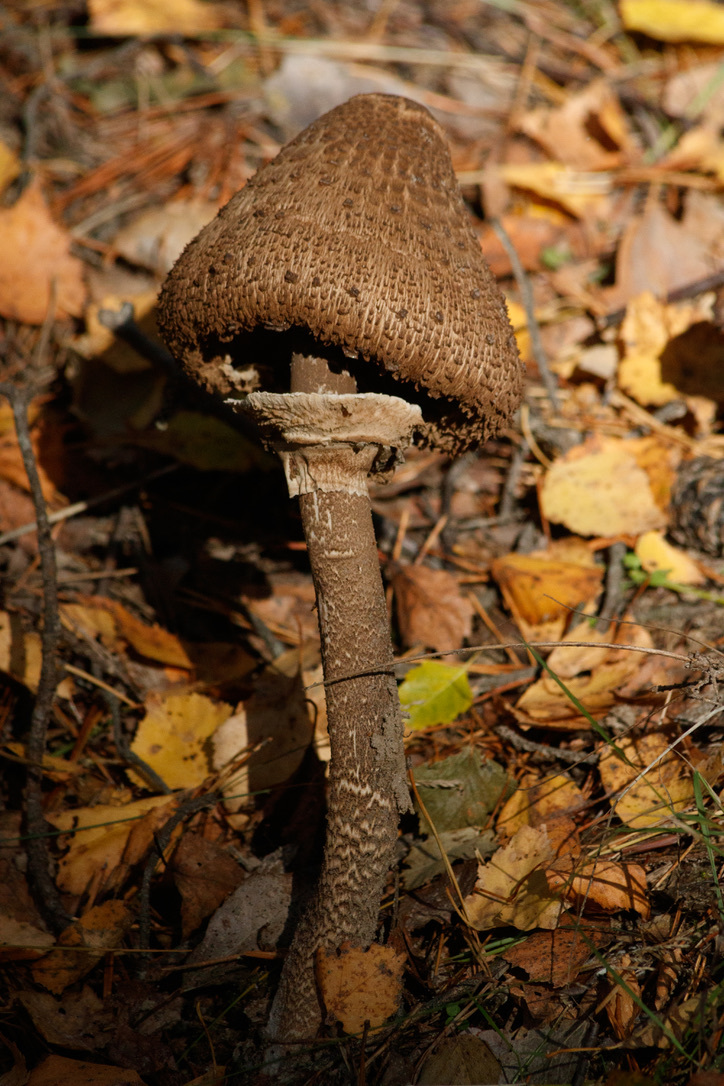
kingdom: Fungi
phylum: Basidiomycota
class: Agaricomycetes
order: Agaricales
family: Agaricaceae
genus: Macrolepiota
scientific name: Macrolepiota procera
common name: Parasol
